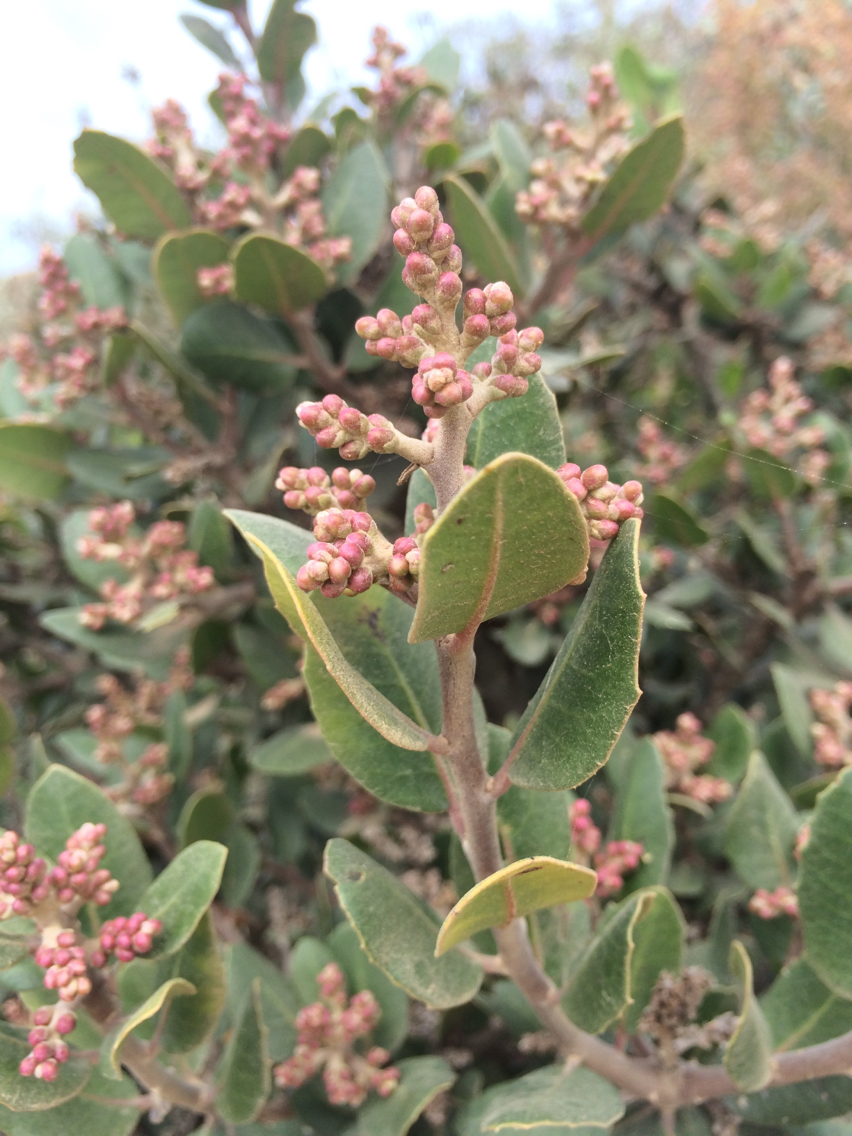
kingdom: Plantae
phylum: Tracheophyta
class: Magnoliopsida
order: Sapindales
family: Anacardiaceae
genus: Rhus
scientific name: Rhus integrifolia
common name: Lemonade sumac
